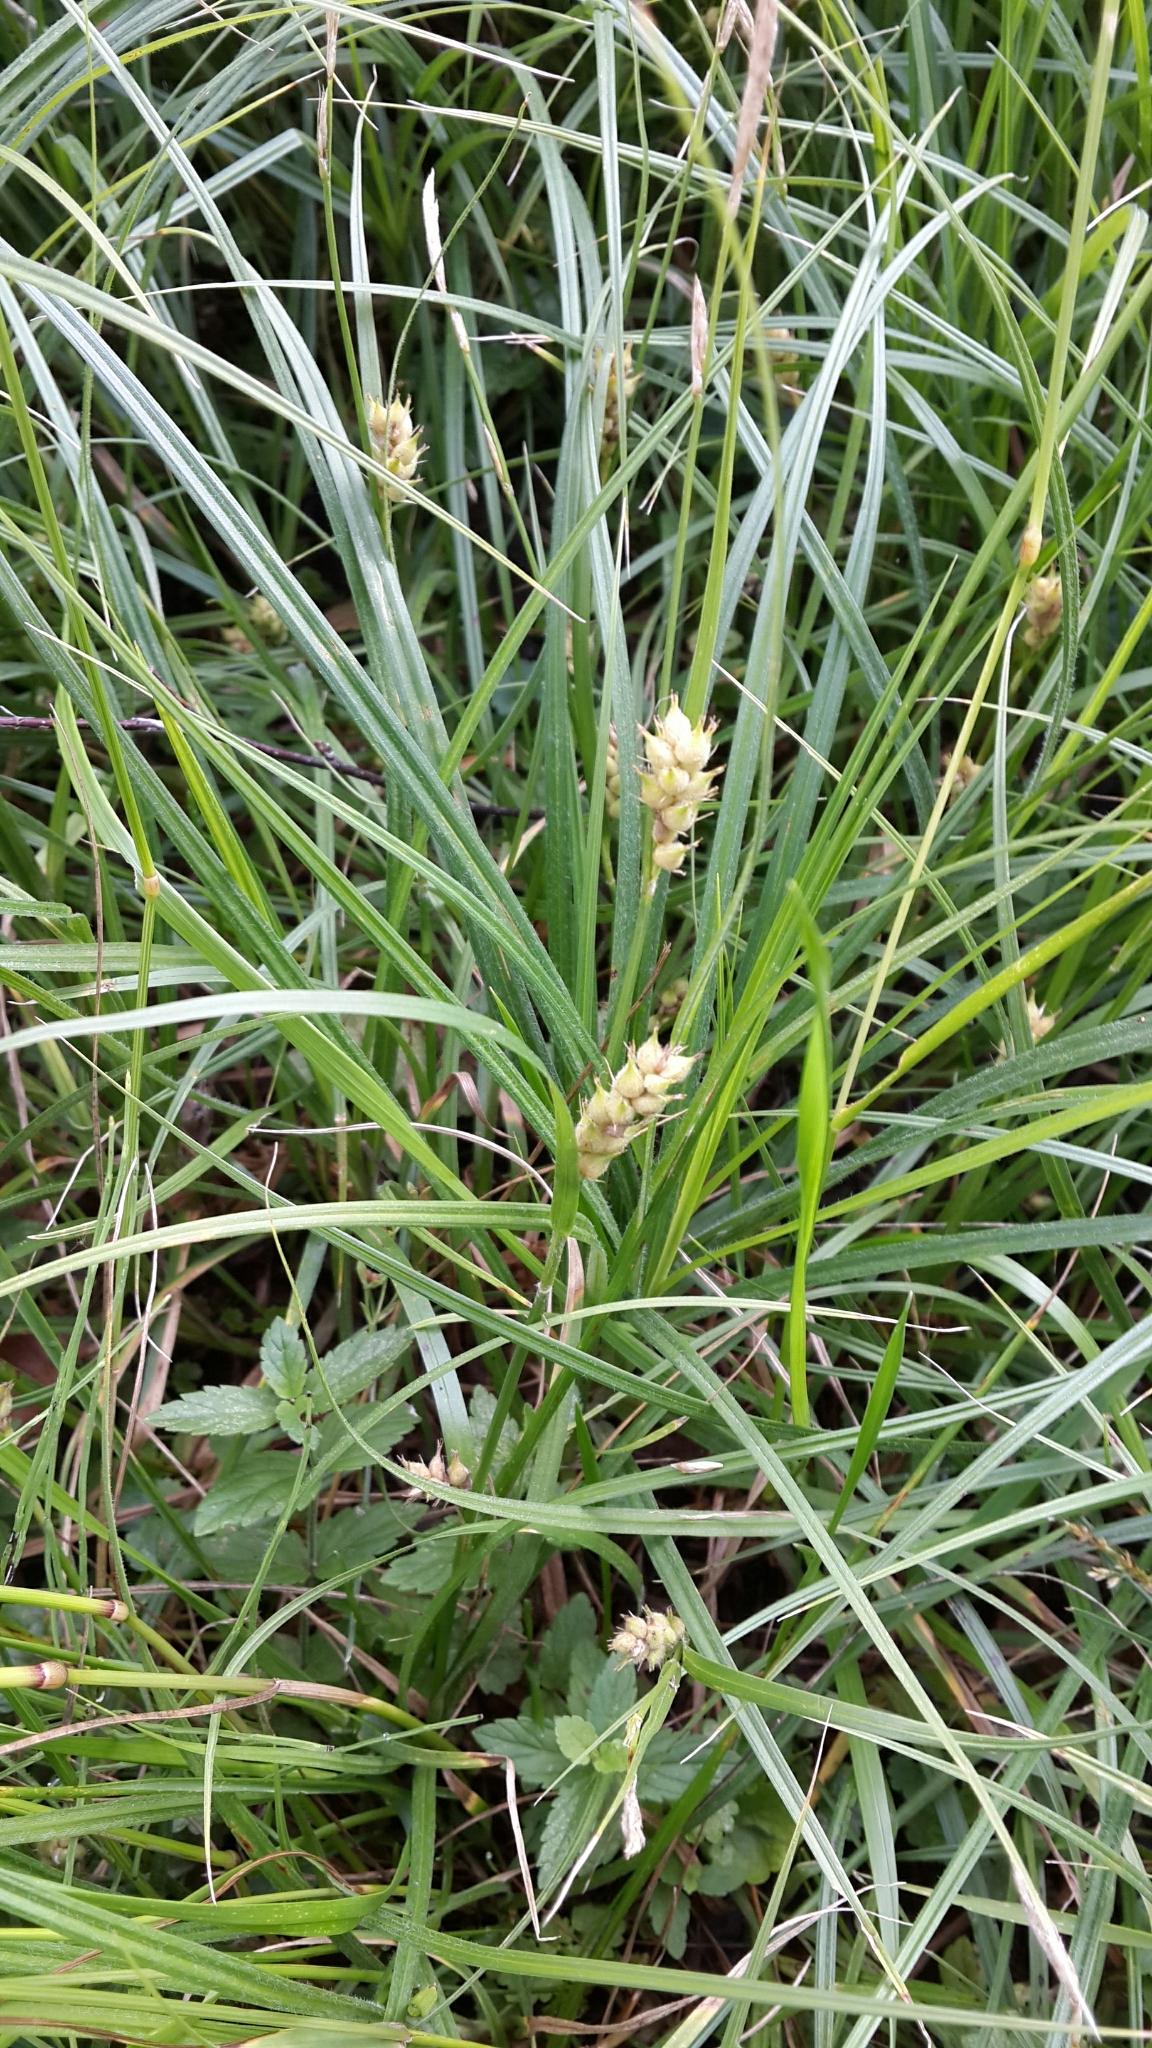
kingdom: Plantae
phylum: Tracheophyta
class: Liliopsida
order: Poales
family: Cyperaceae
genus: Carex
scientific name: Carex hirta
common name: Hairy sedge
